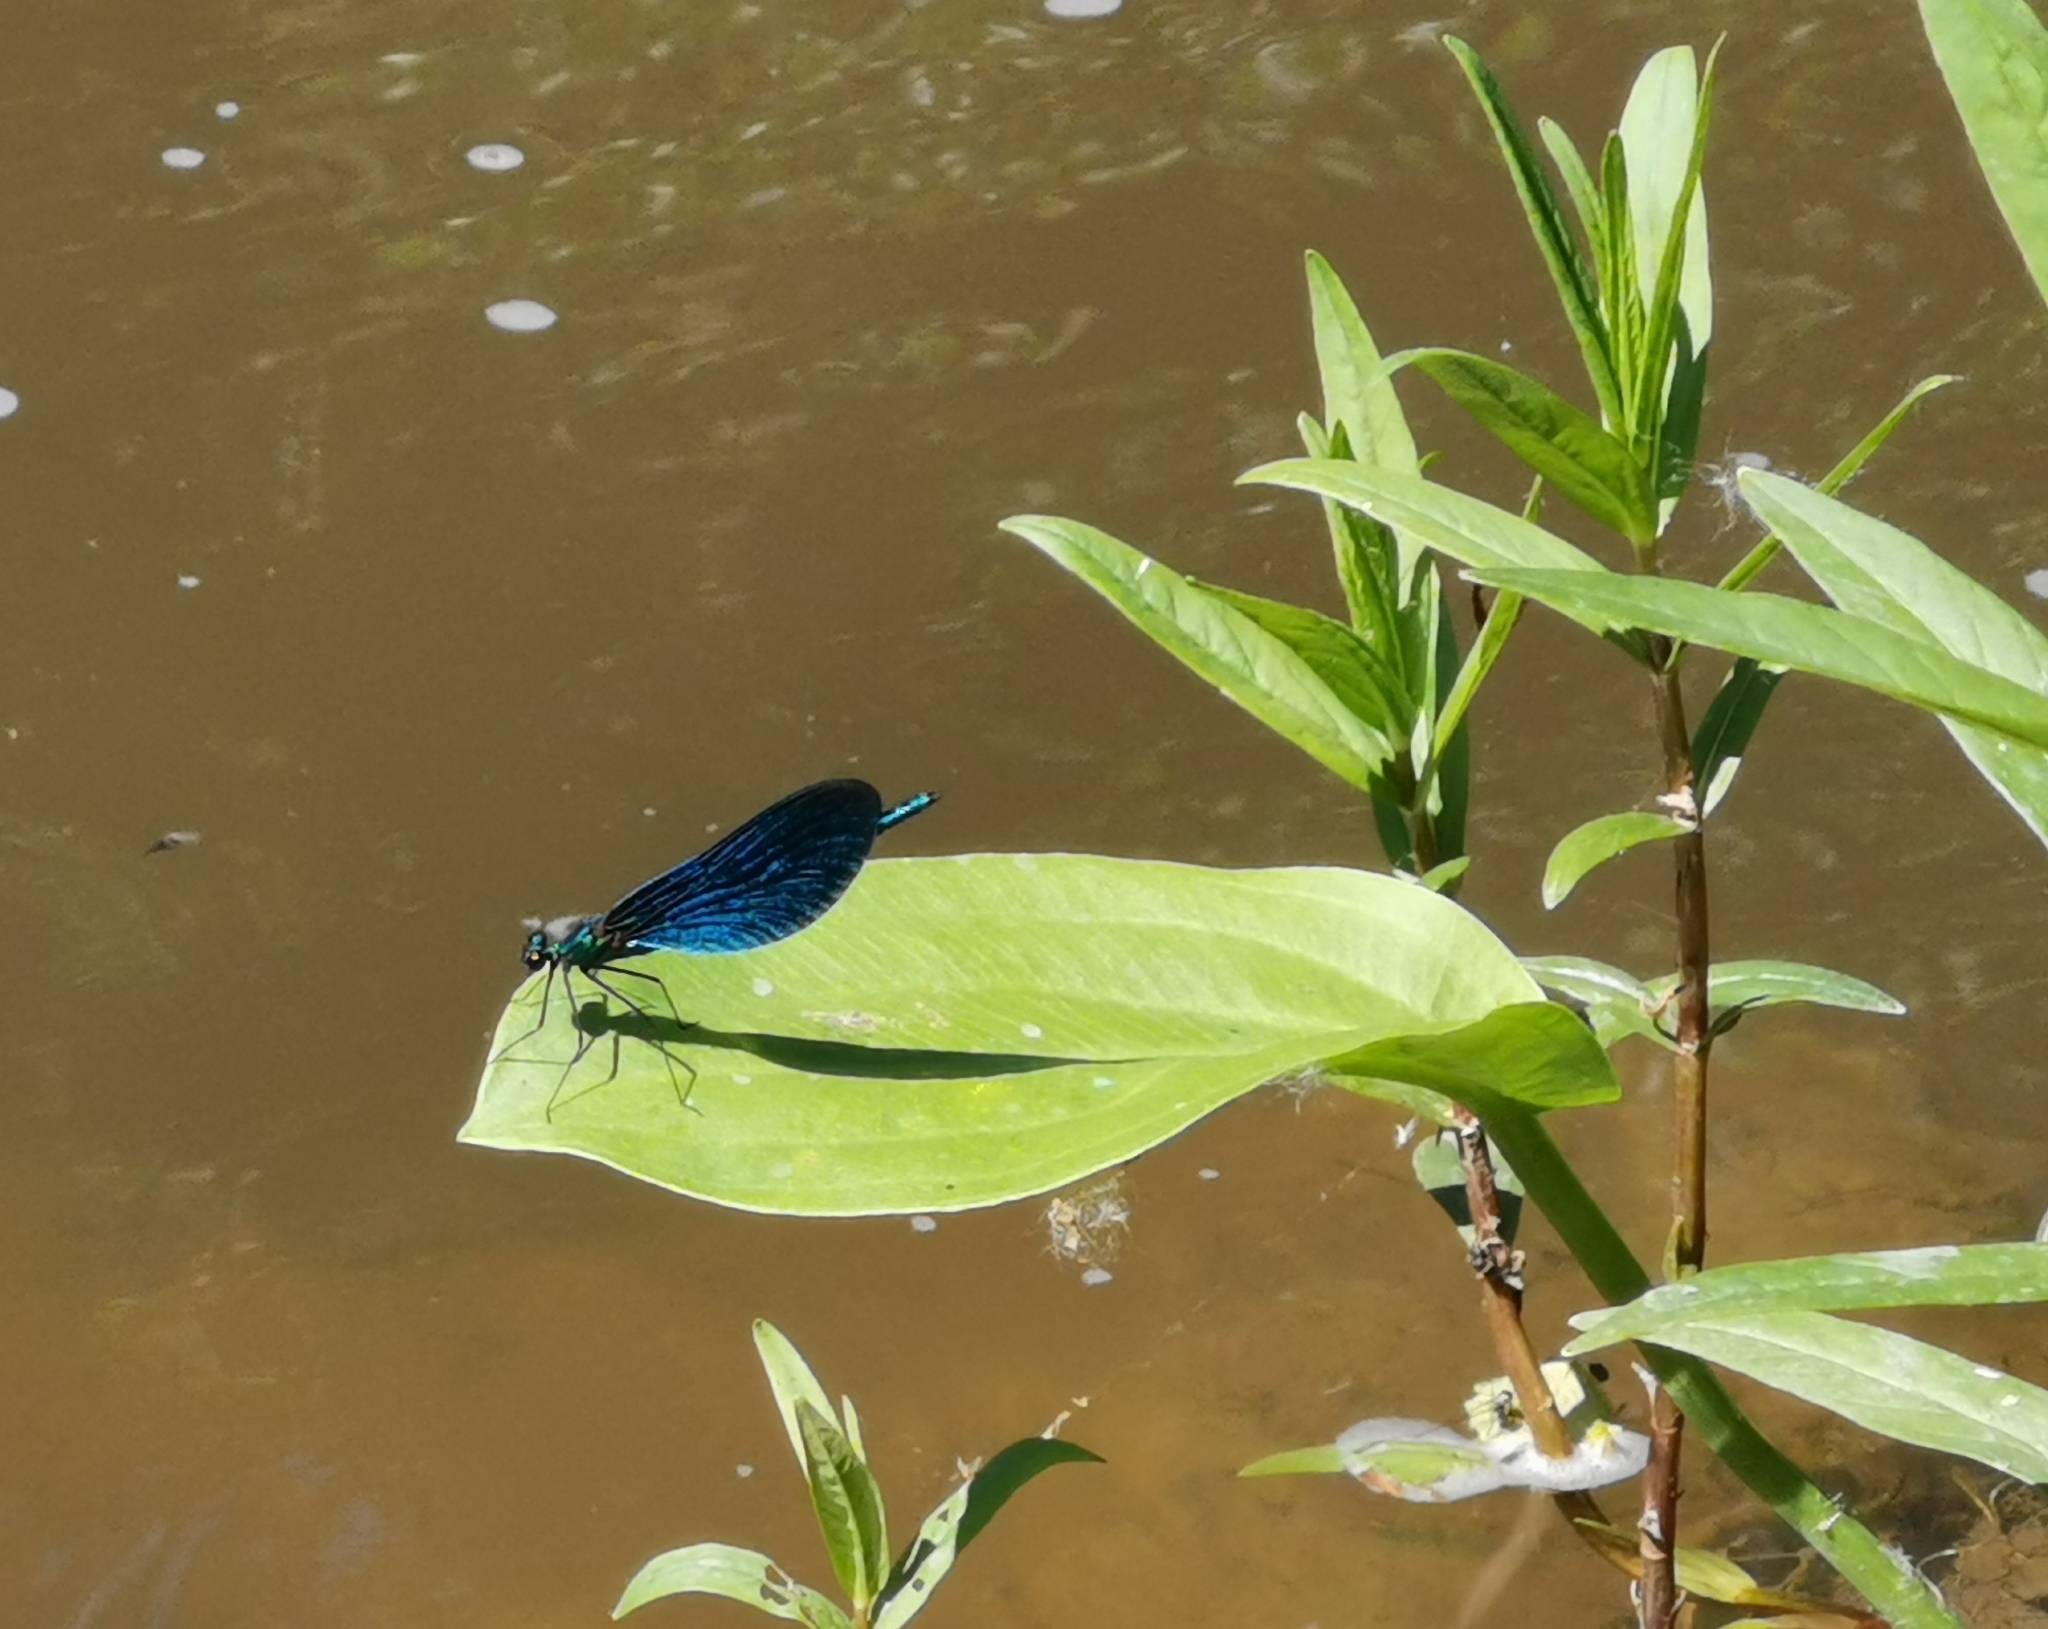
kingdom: Animalia
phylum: Arthropoda
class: Insecta
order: Odonata
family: Calopterygidae
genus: Calopteryx
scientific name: Calopteryx virgo
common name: Beautiful demoiselle
